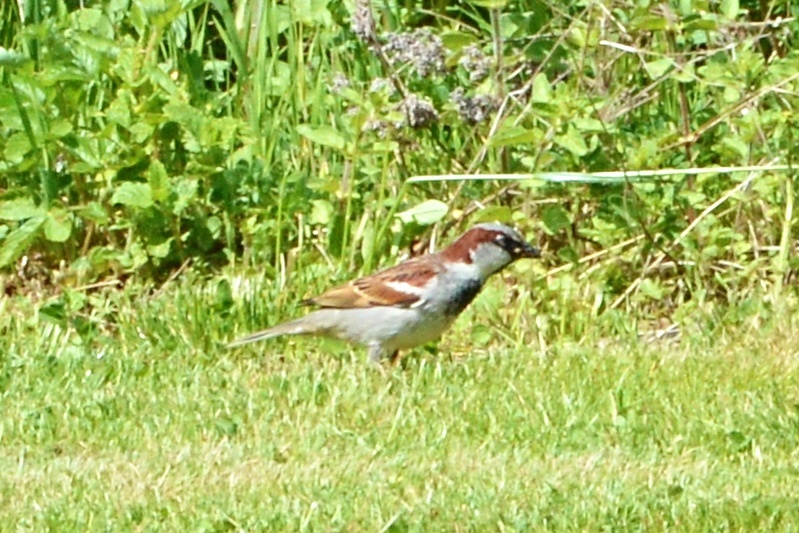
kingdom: Animalia
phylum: Chordata
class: Aves
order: Passeriformes
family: Passeridae
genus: Passer
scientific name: Passer domesticus
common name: House sparrow
